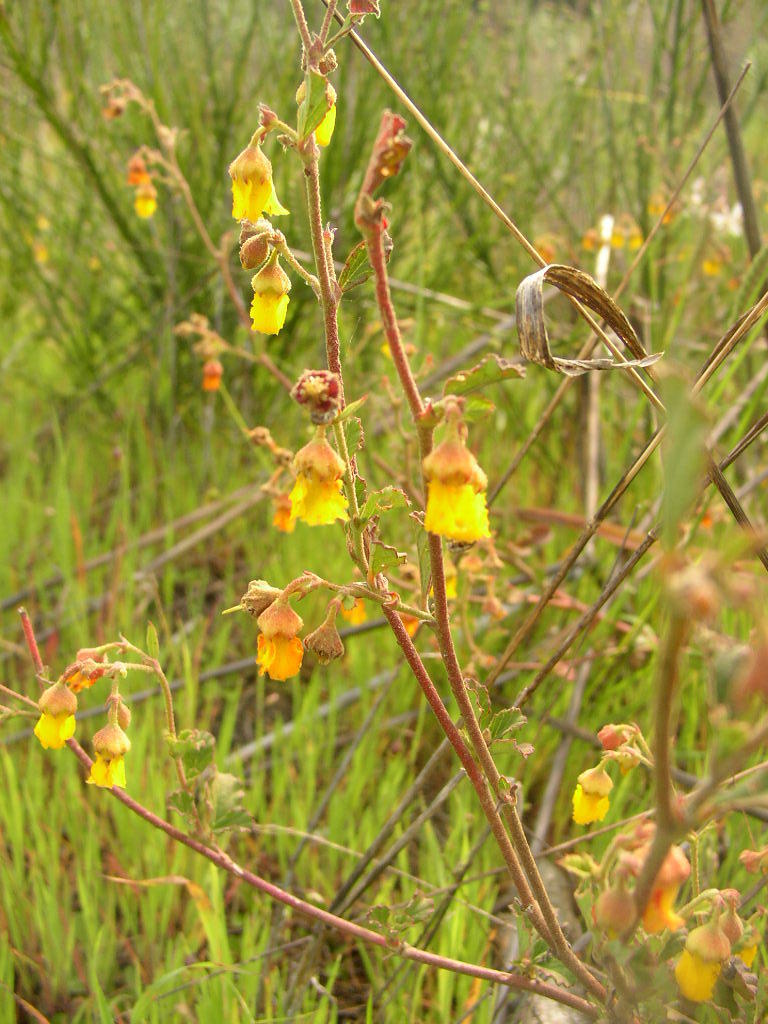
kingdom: Plantae
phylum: Tracheophyta
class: Magnoliopsida
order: Malvales
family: Malvaceae
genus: Hermannia
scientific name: Hermannia multiflora
